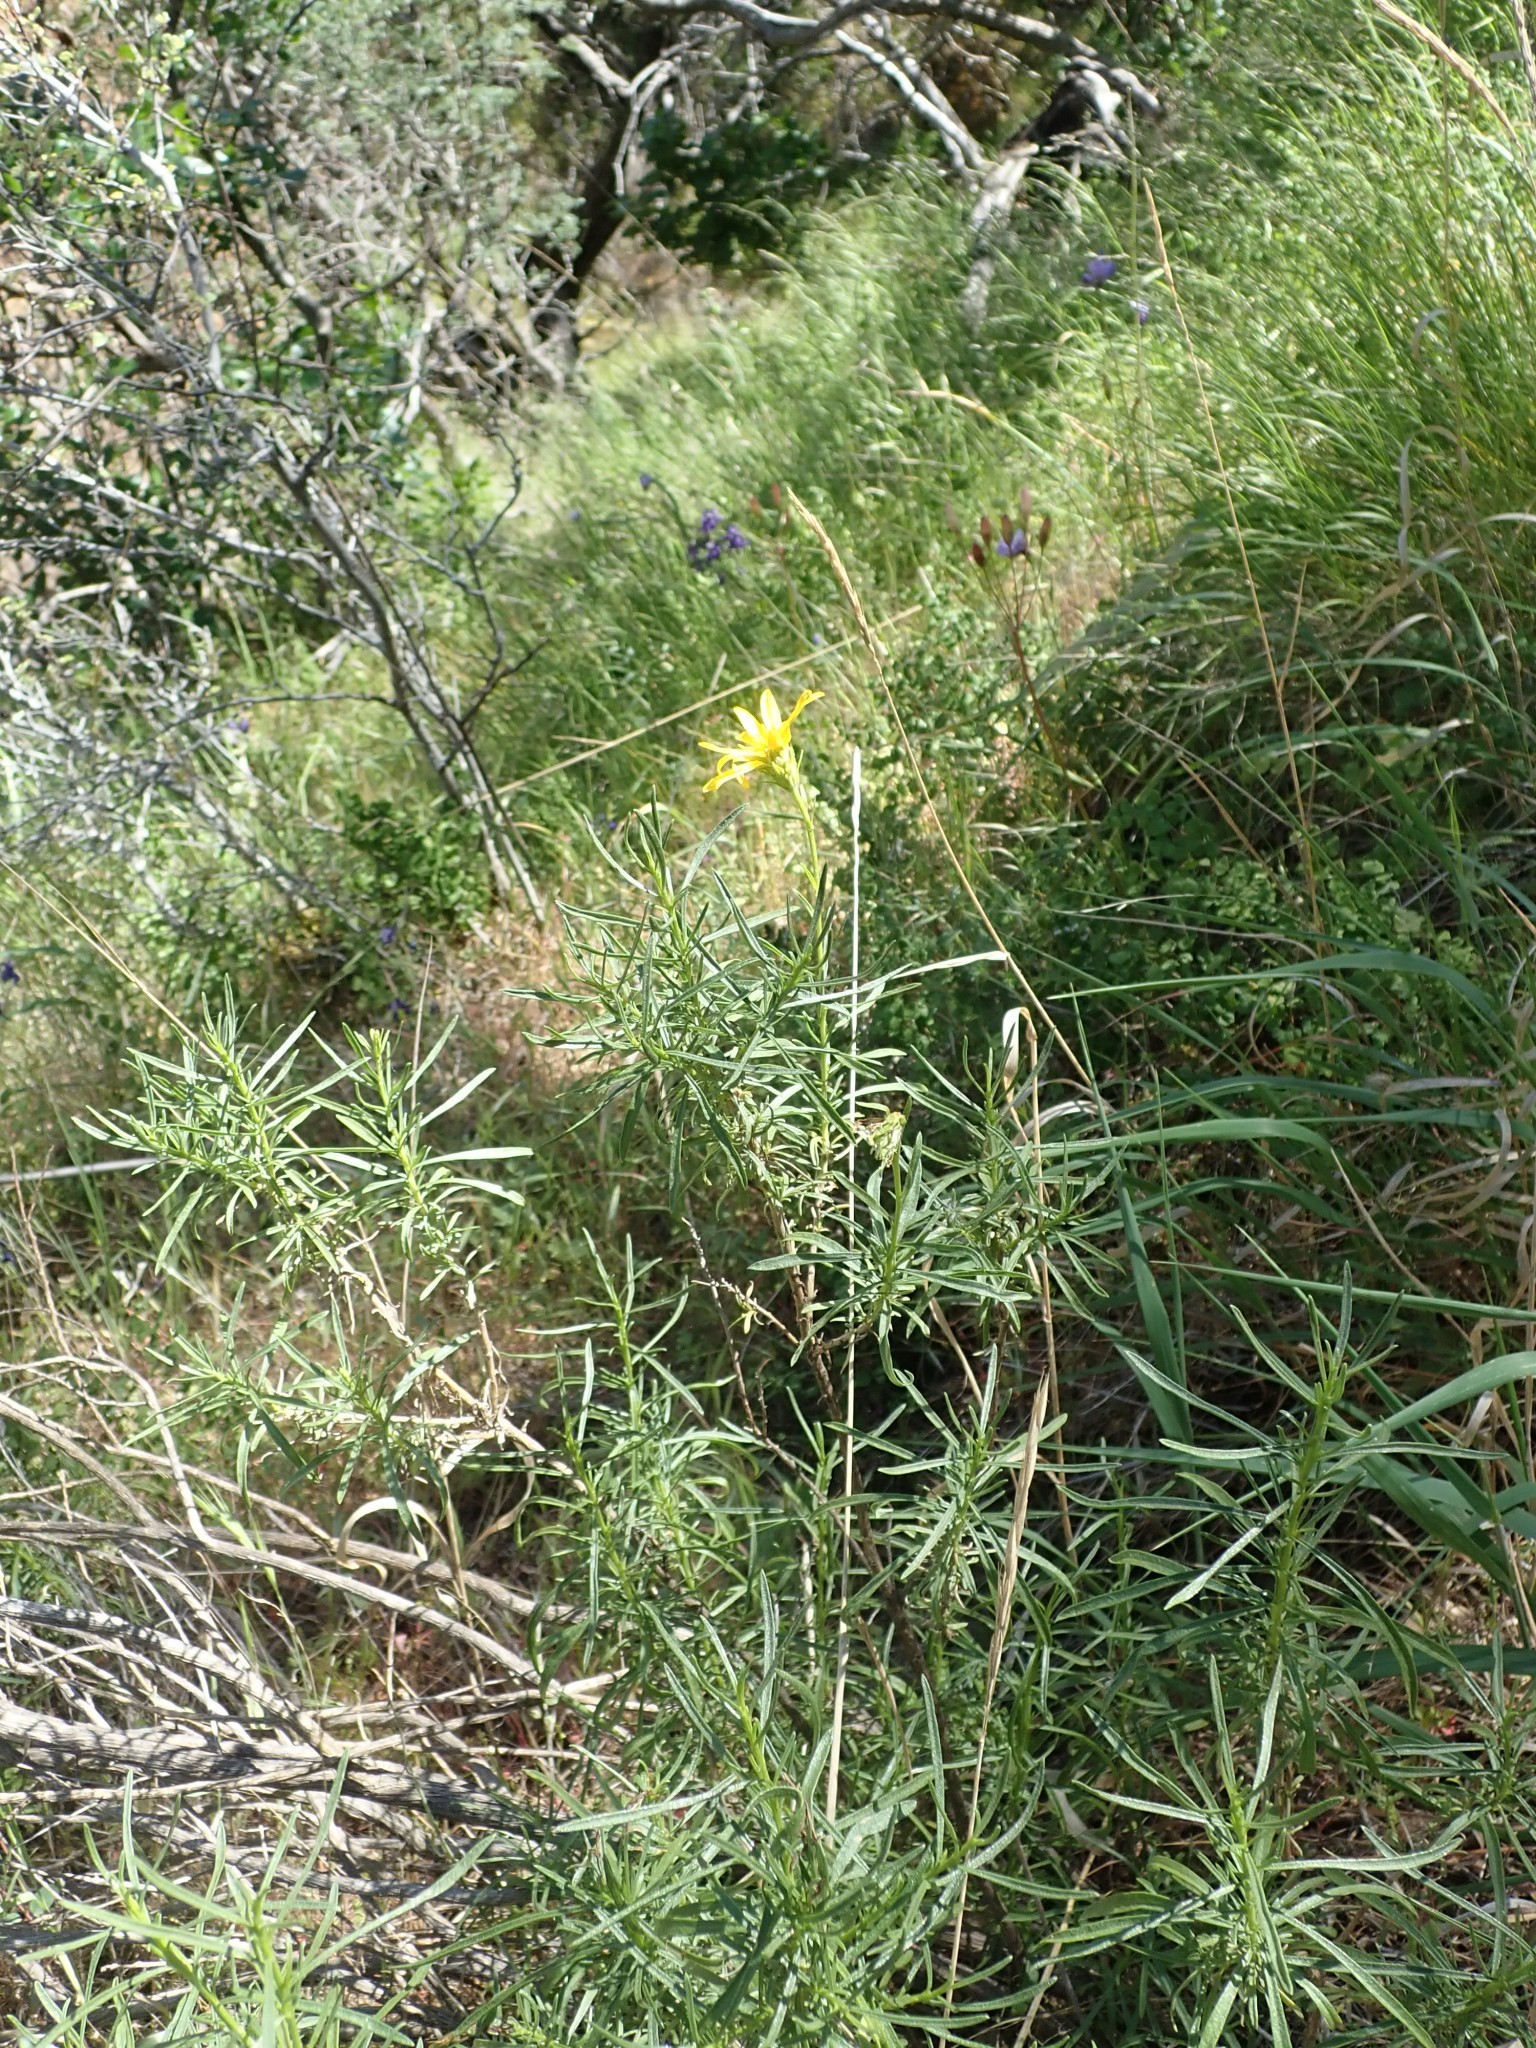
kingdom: Plantae
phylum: Tracheophyta
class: Magnoliopsida
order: Asterales
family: Asteraceae
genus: Ericameria
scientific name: Ericameria linearifolia
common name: Interior goldenbush
